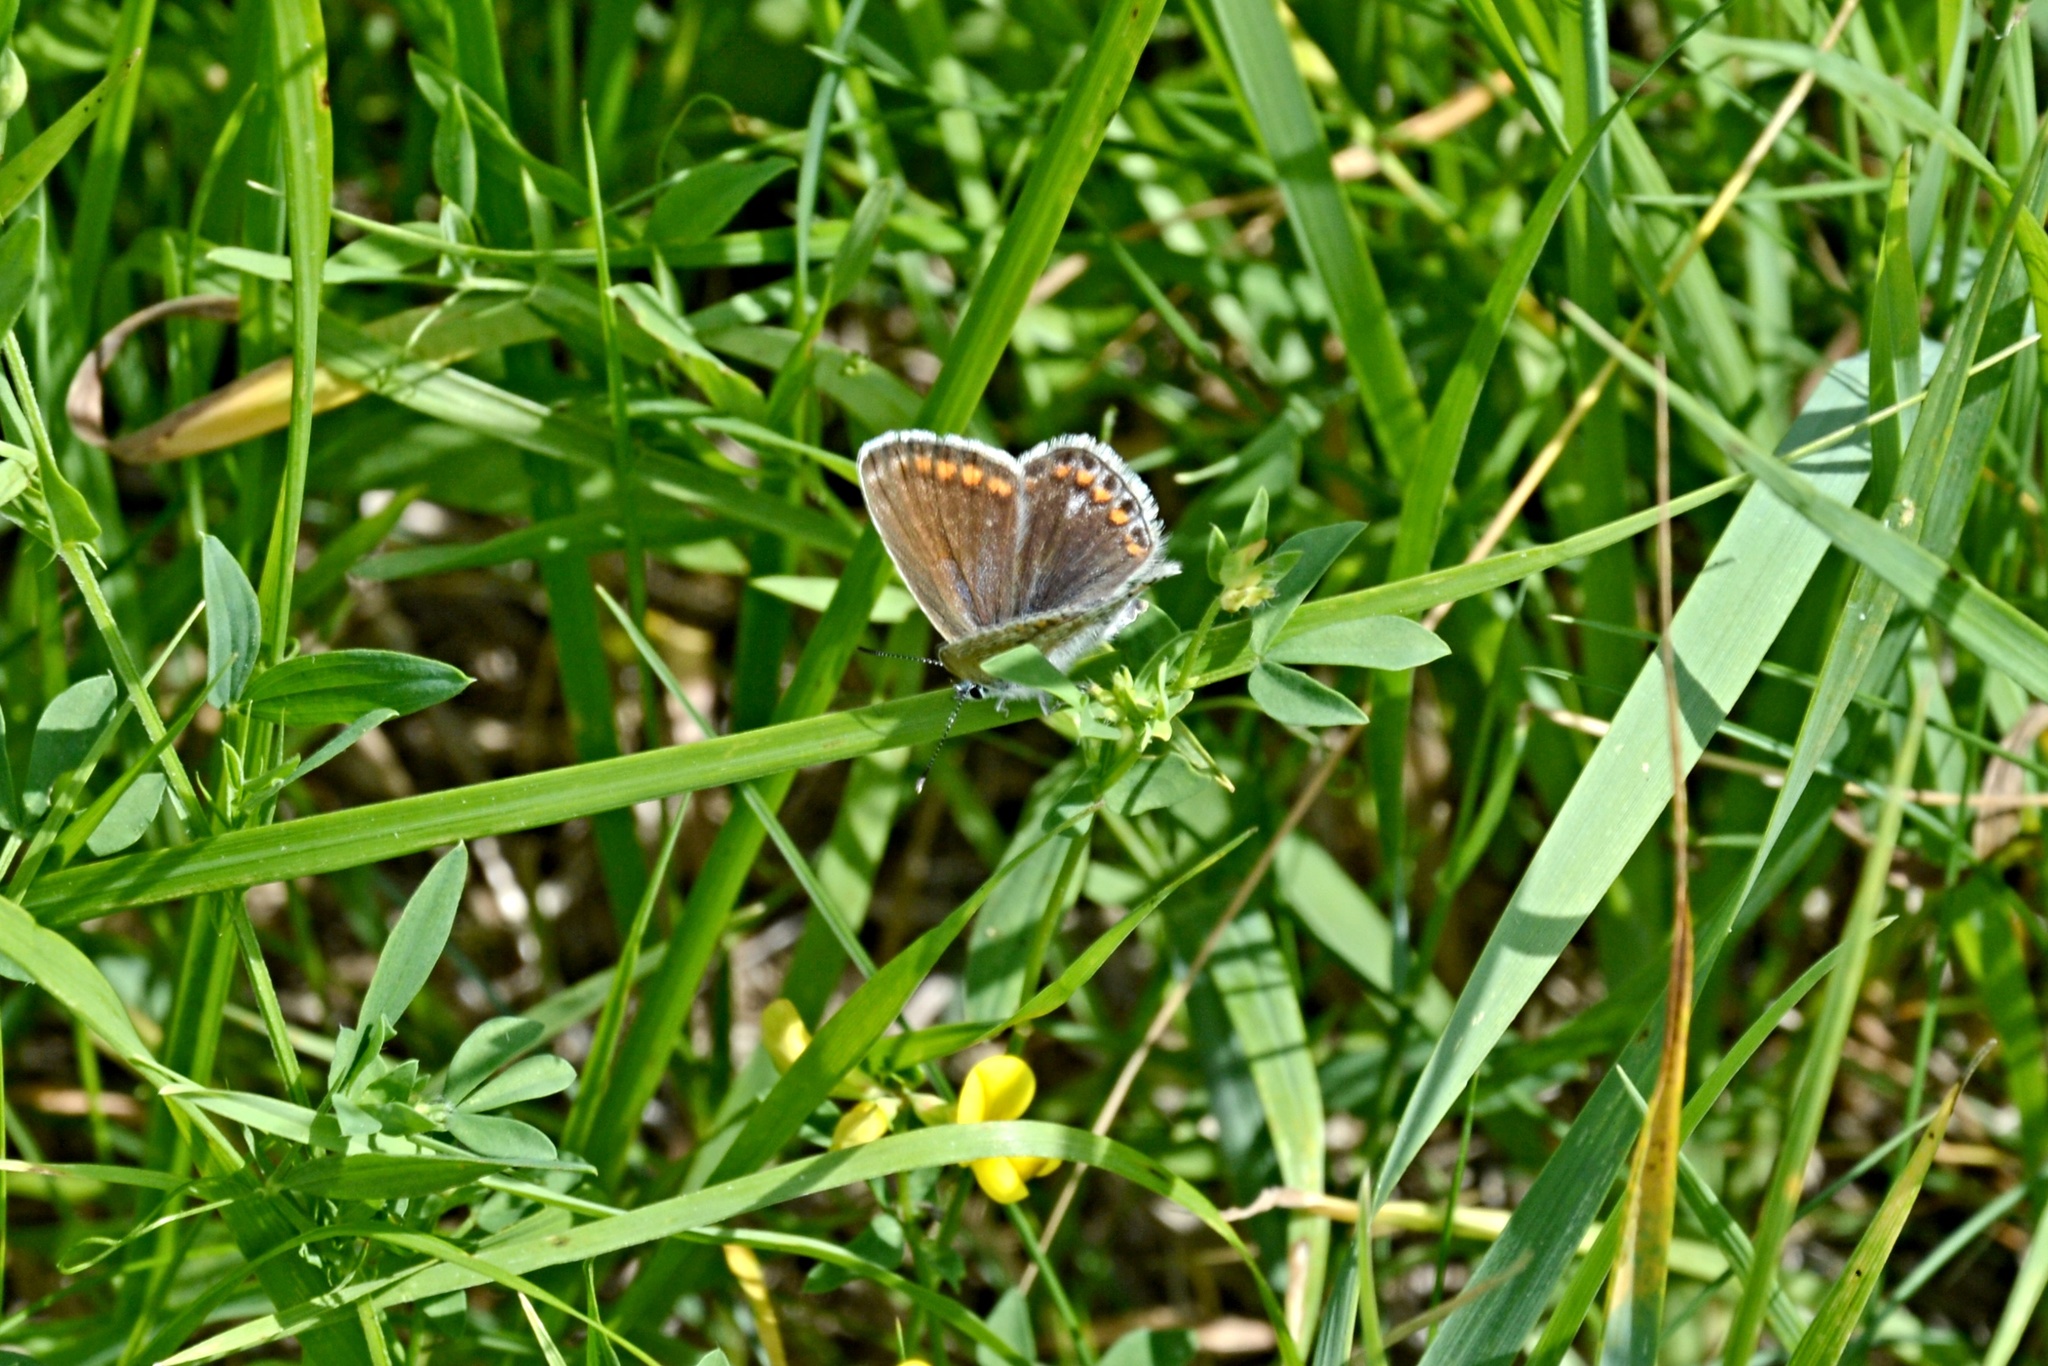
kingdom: Animalia
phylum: Arthropoda
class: Insecta
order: Lepidoptera
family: Lycaenidae
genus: Polyommatus
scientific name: Polyommatus icarus
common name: Common blue
